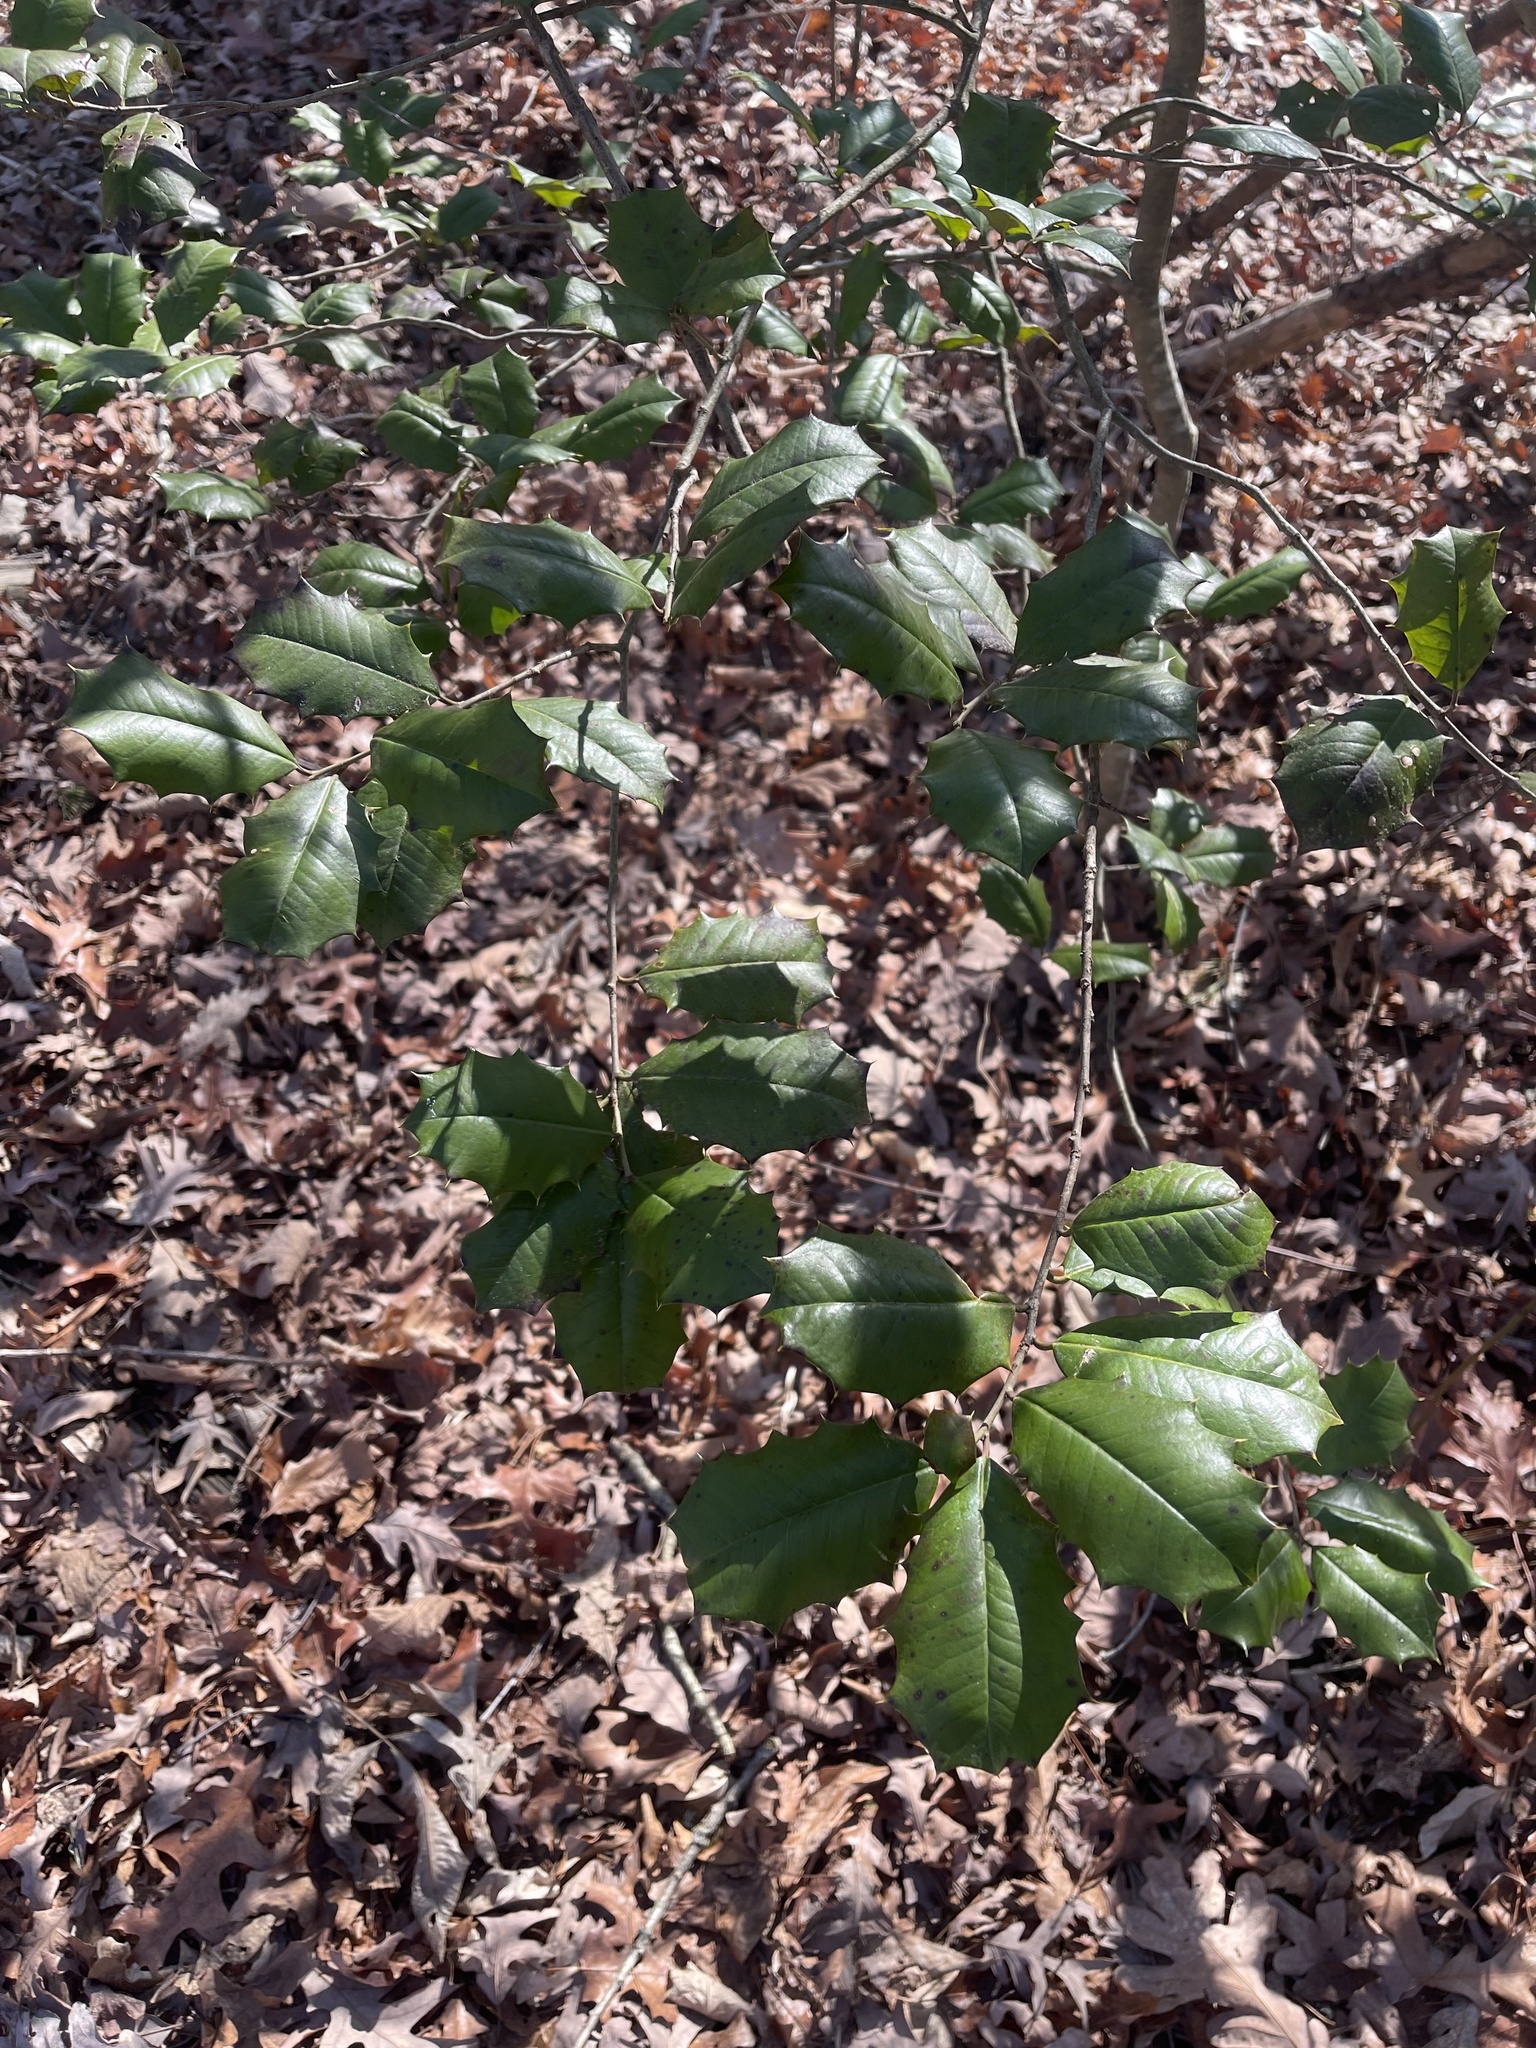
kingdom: Plantae
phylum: Tracheophyta
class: Magnoliopsida
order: Aquifoliales
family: Aquifoliaceae
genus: Ilex
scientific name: Ilex opaca
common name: American holly
